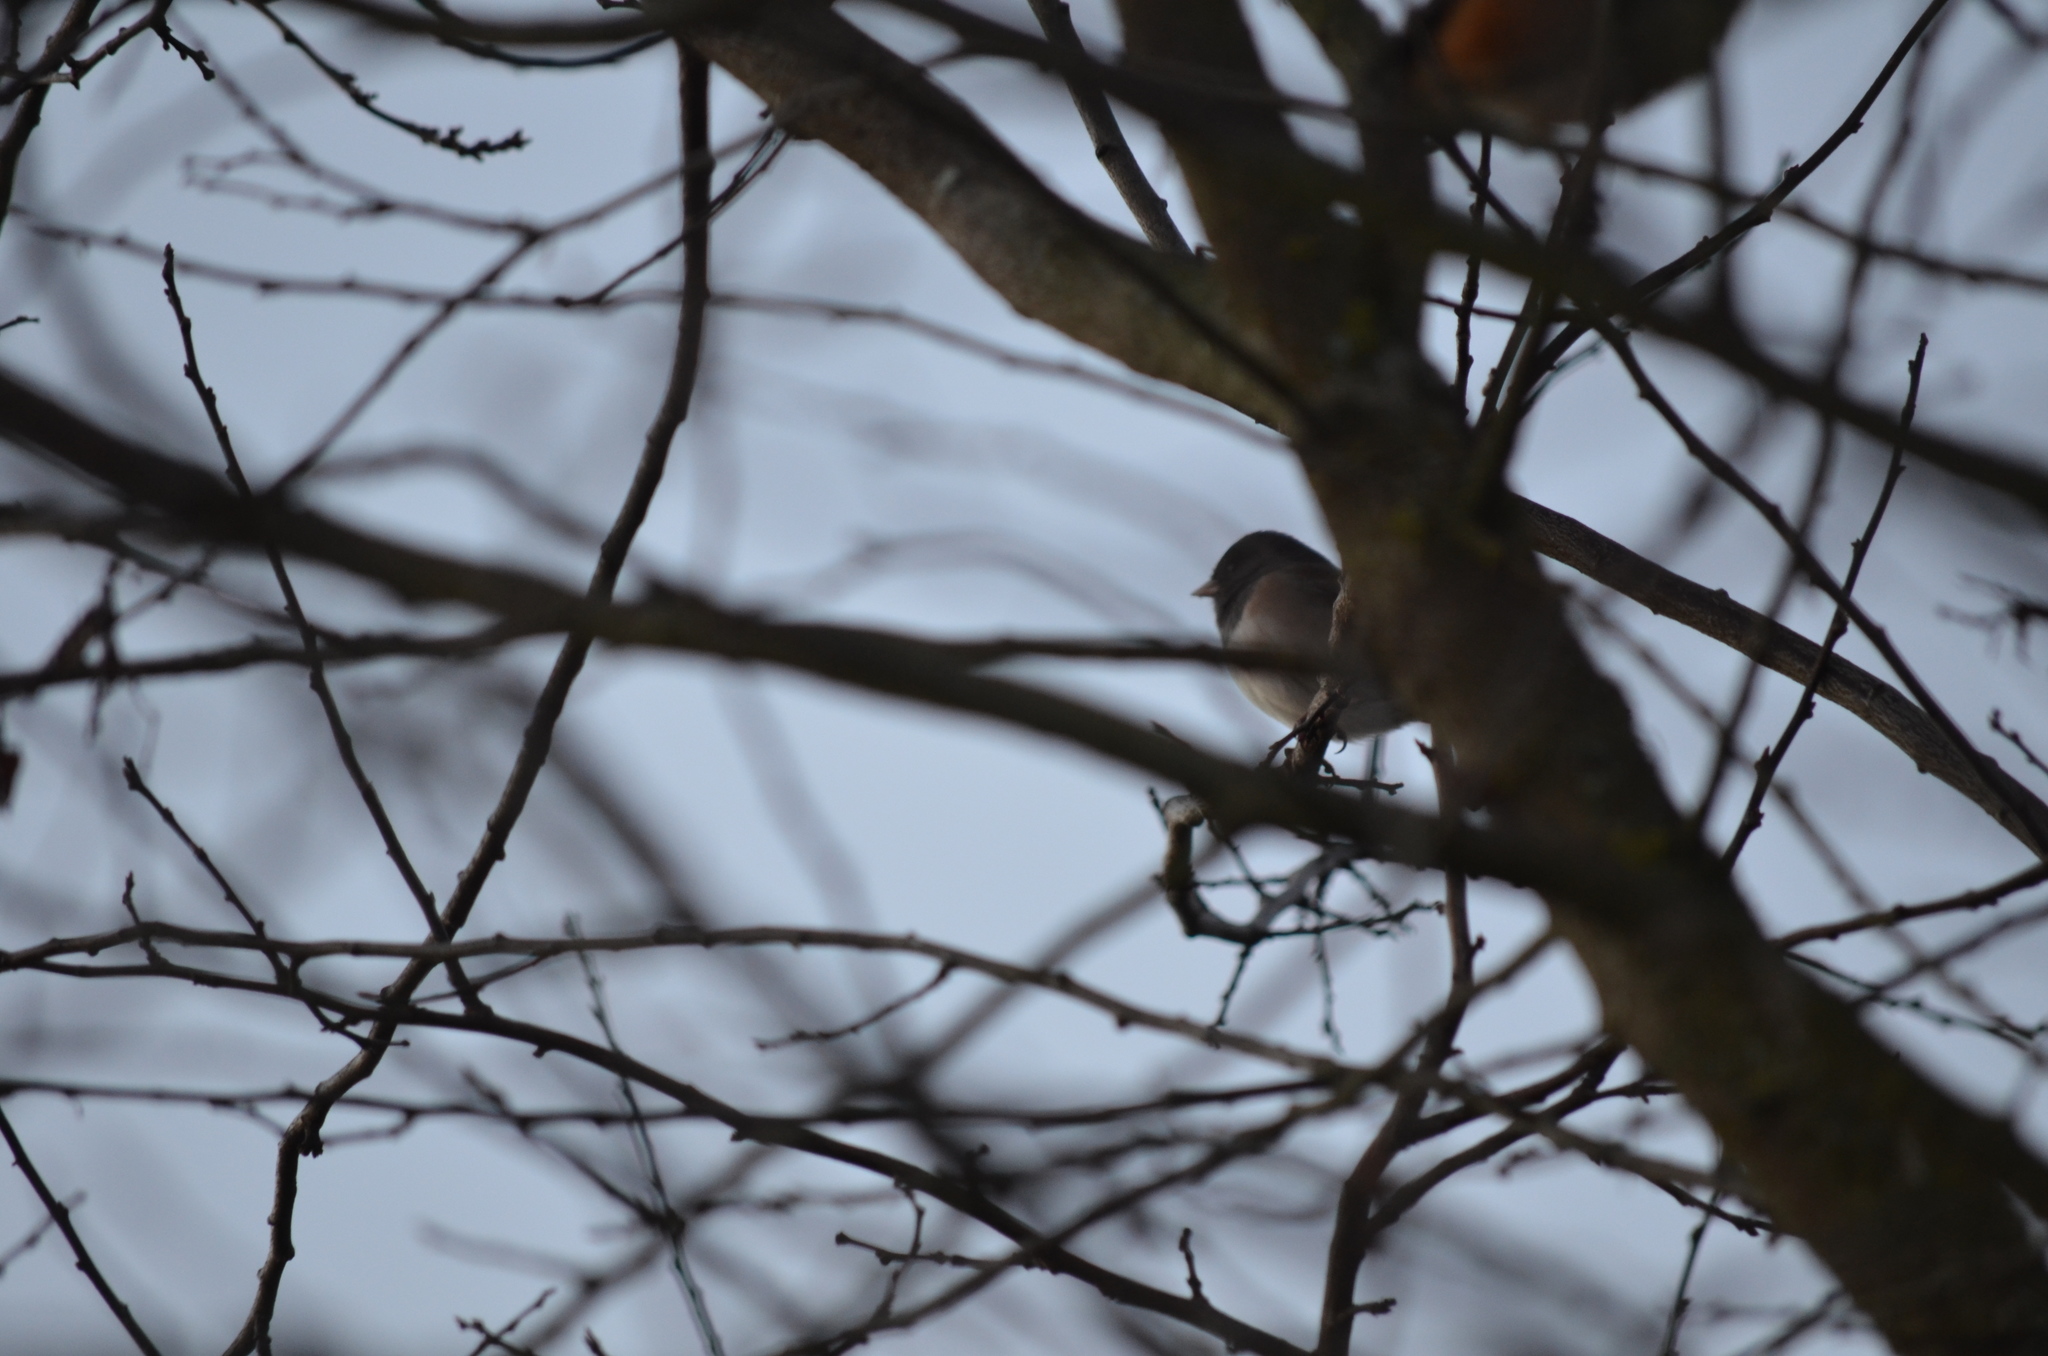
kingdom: Animalia
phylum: Chordata
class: Aves
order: Passeriformes
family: Passerellidae
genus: Junco
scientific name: Junco hyemalis
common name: Dark-eyed junco
